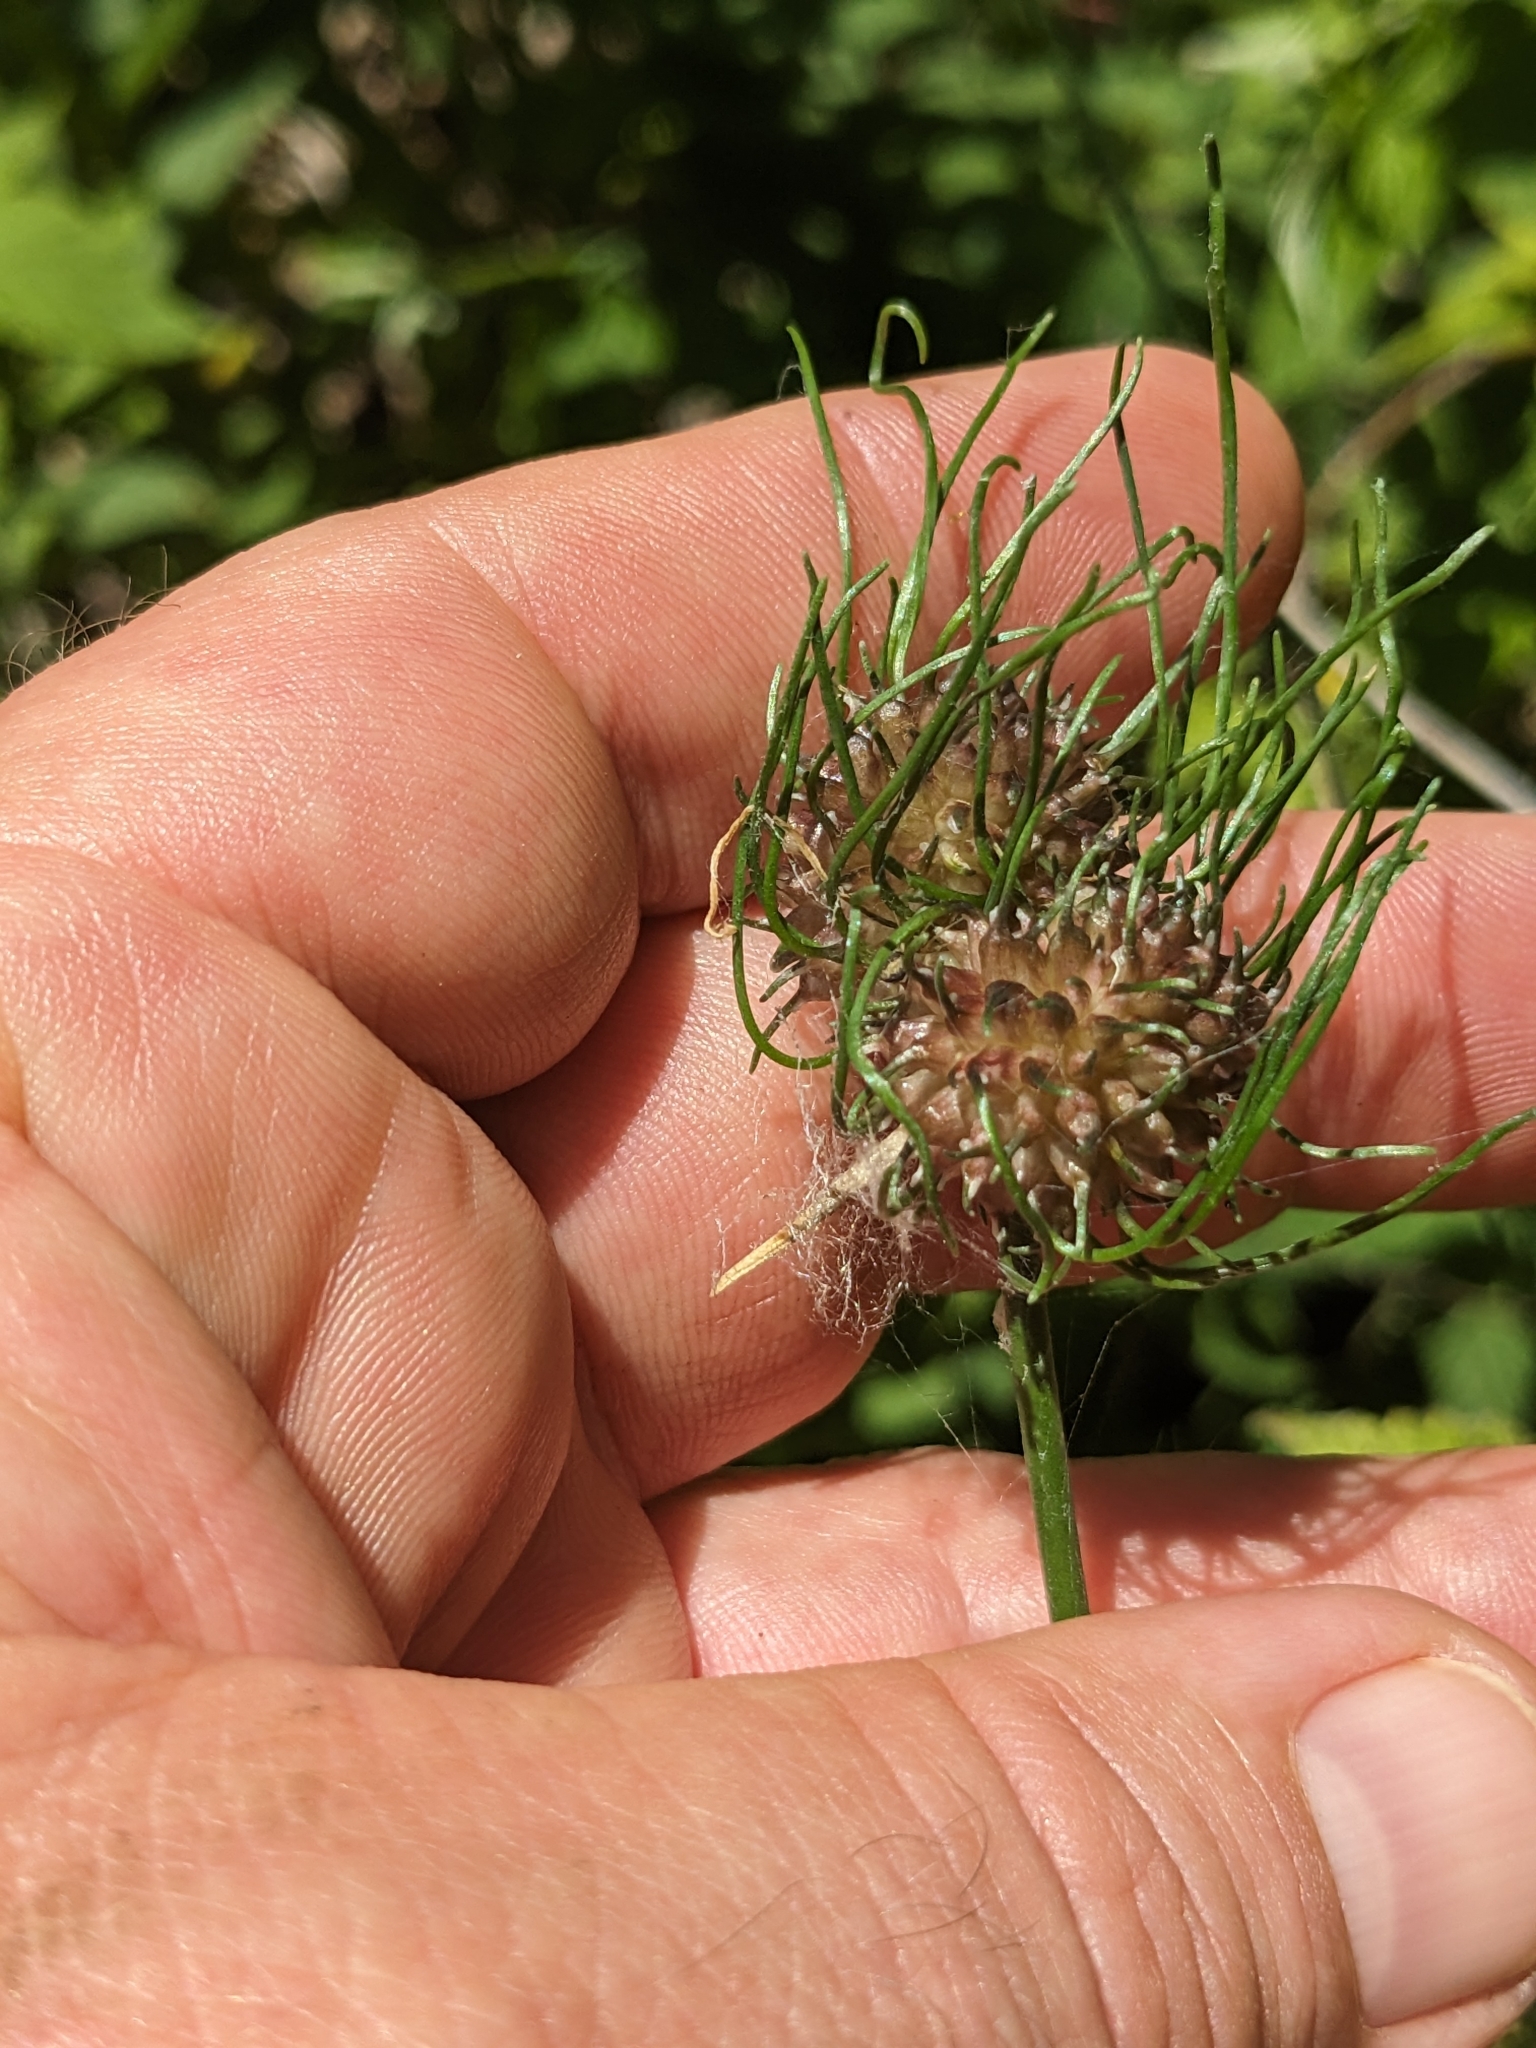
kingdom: Plantae
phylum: Tracheophyta
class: Liliopsida
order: Asparagales
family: Amaryllidaceae
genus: Allium
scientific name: Allium vineale
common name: Crow garlic
